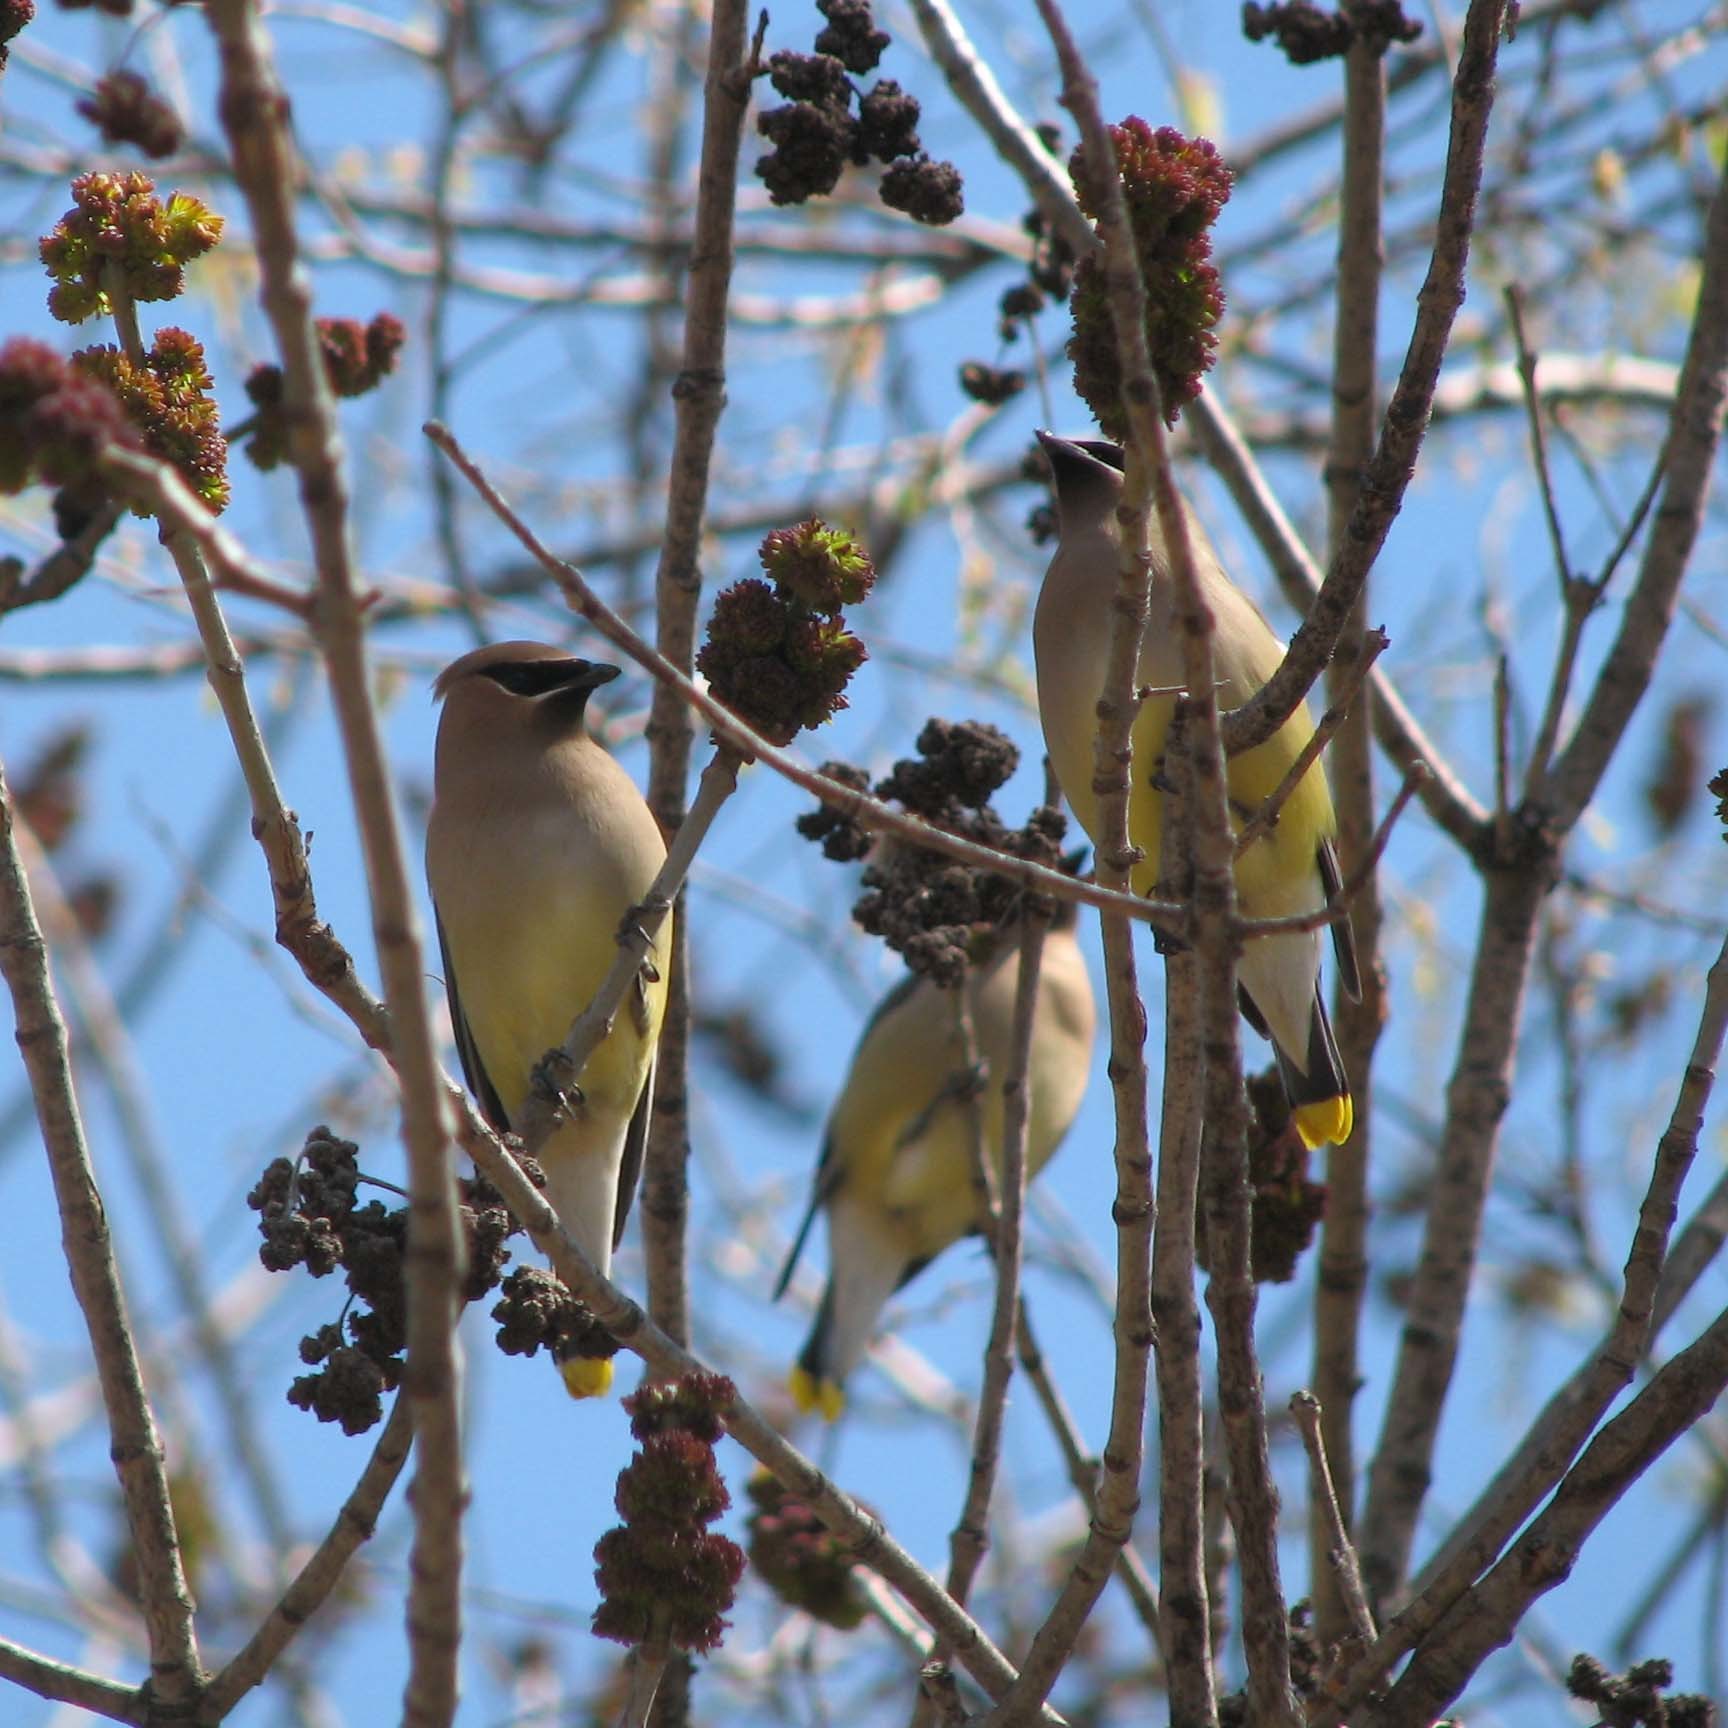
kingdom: Animalia
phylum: Chordata
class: Aves
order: Passeriformes
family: Bombycillidae
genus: Bombycilla
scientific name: Bombycilla cedrorum
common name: Cedar waxwing
